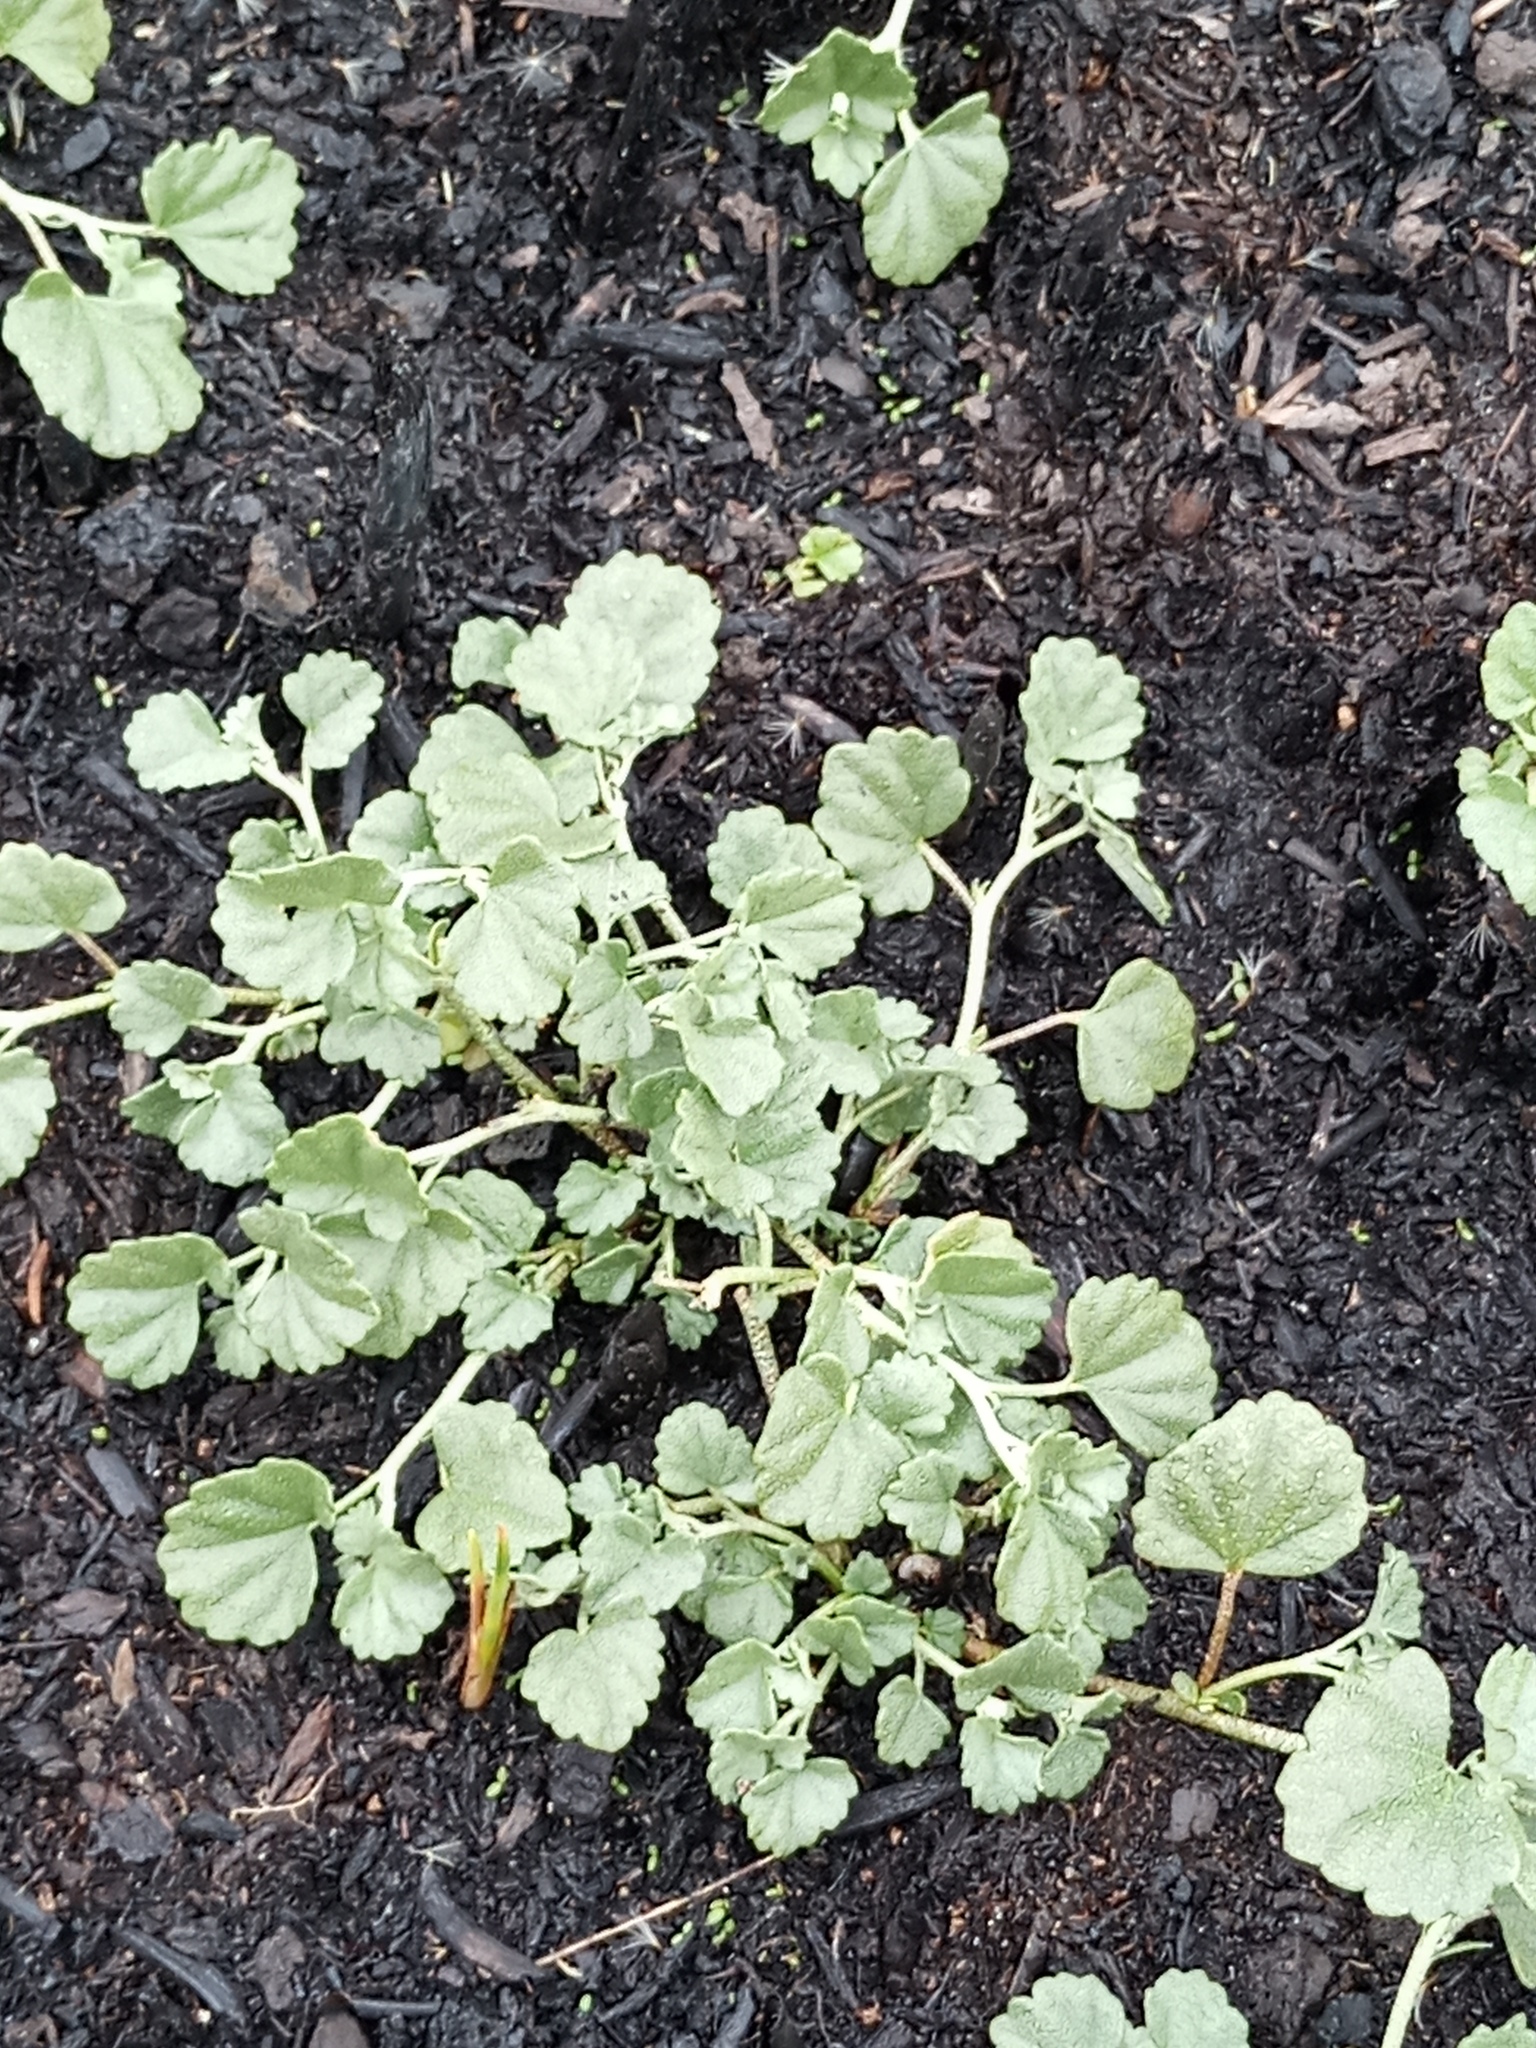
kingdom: Plantae
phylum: Tracheophyta
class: Magnoliopsida
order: Malvales
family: Malvaceae
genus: Malvella
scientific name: Malvella leprosa
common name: Alkali-mallow
